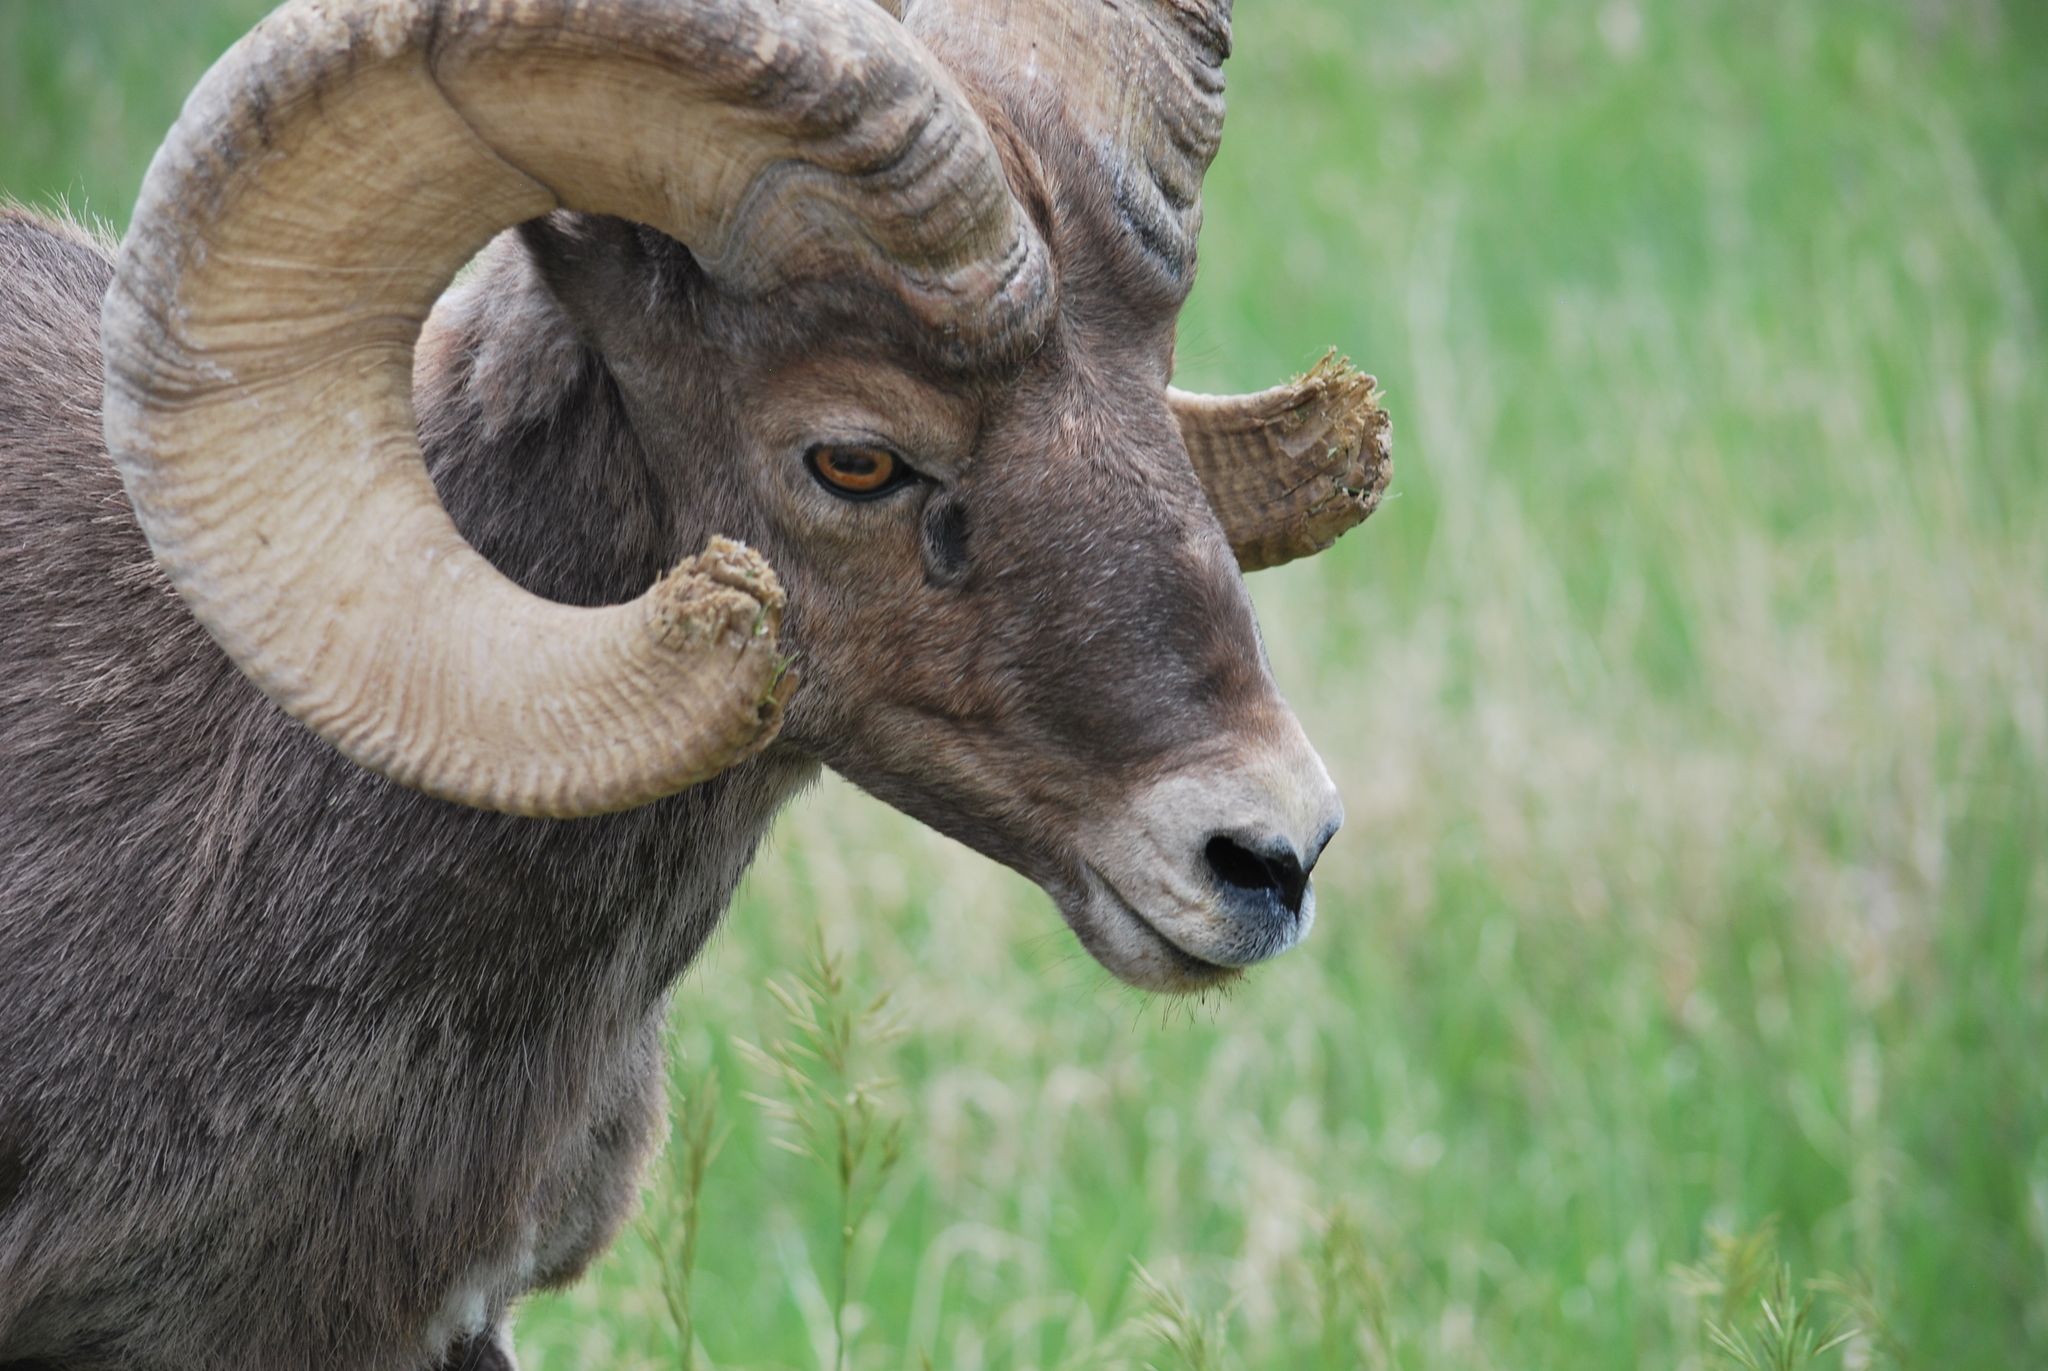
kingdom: Animalia
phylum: Chordata
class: Mammalia
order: Artiodactyla
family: Bovidae
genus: Ovis
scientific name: Ovis canadensis
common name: Bighorn sheep
